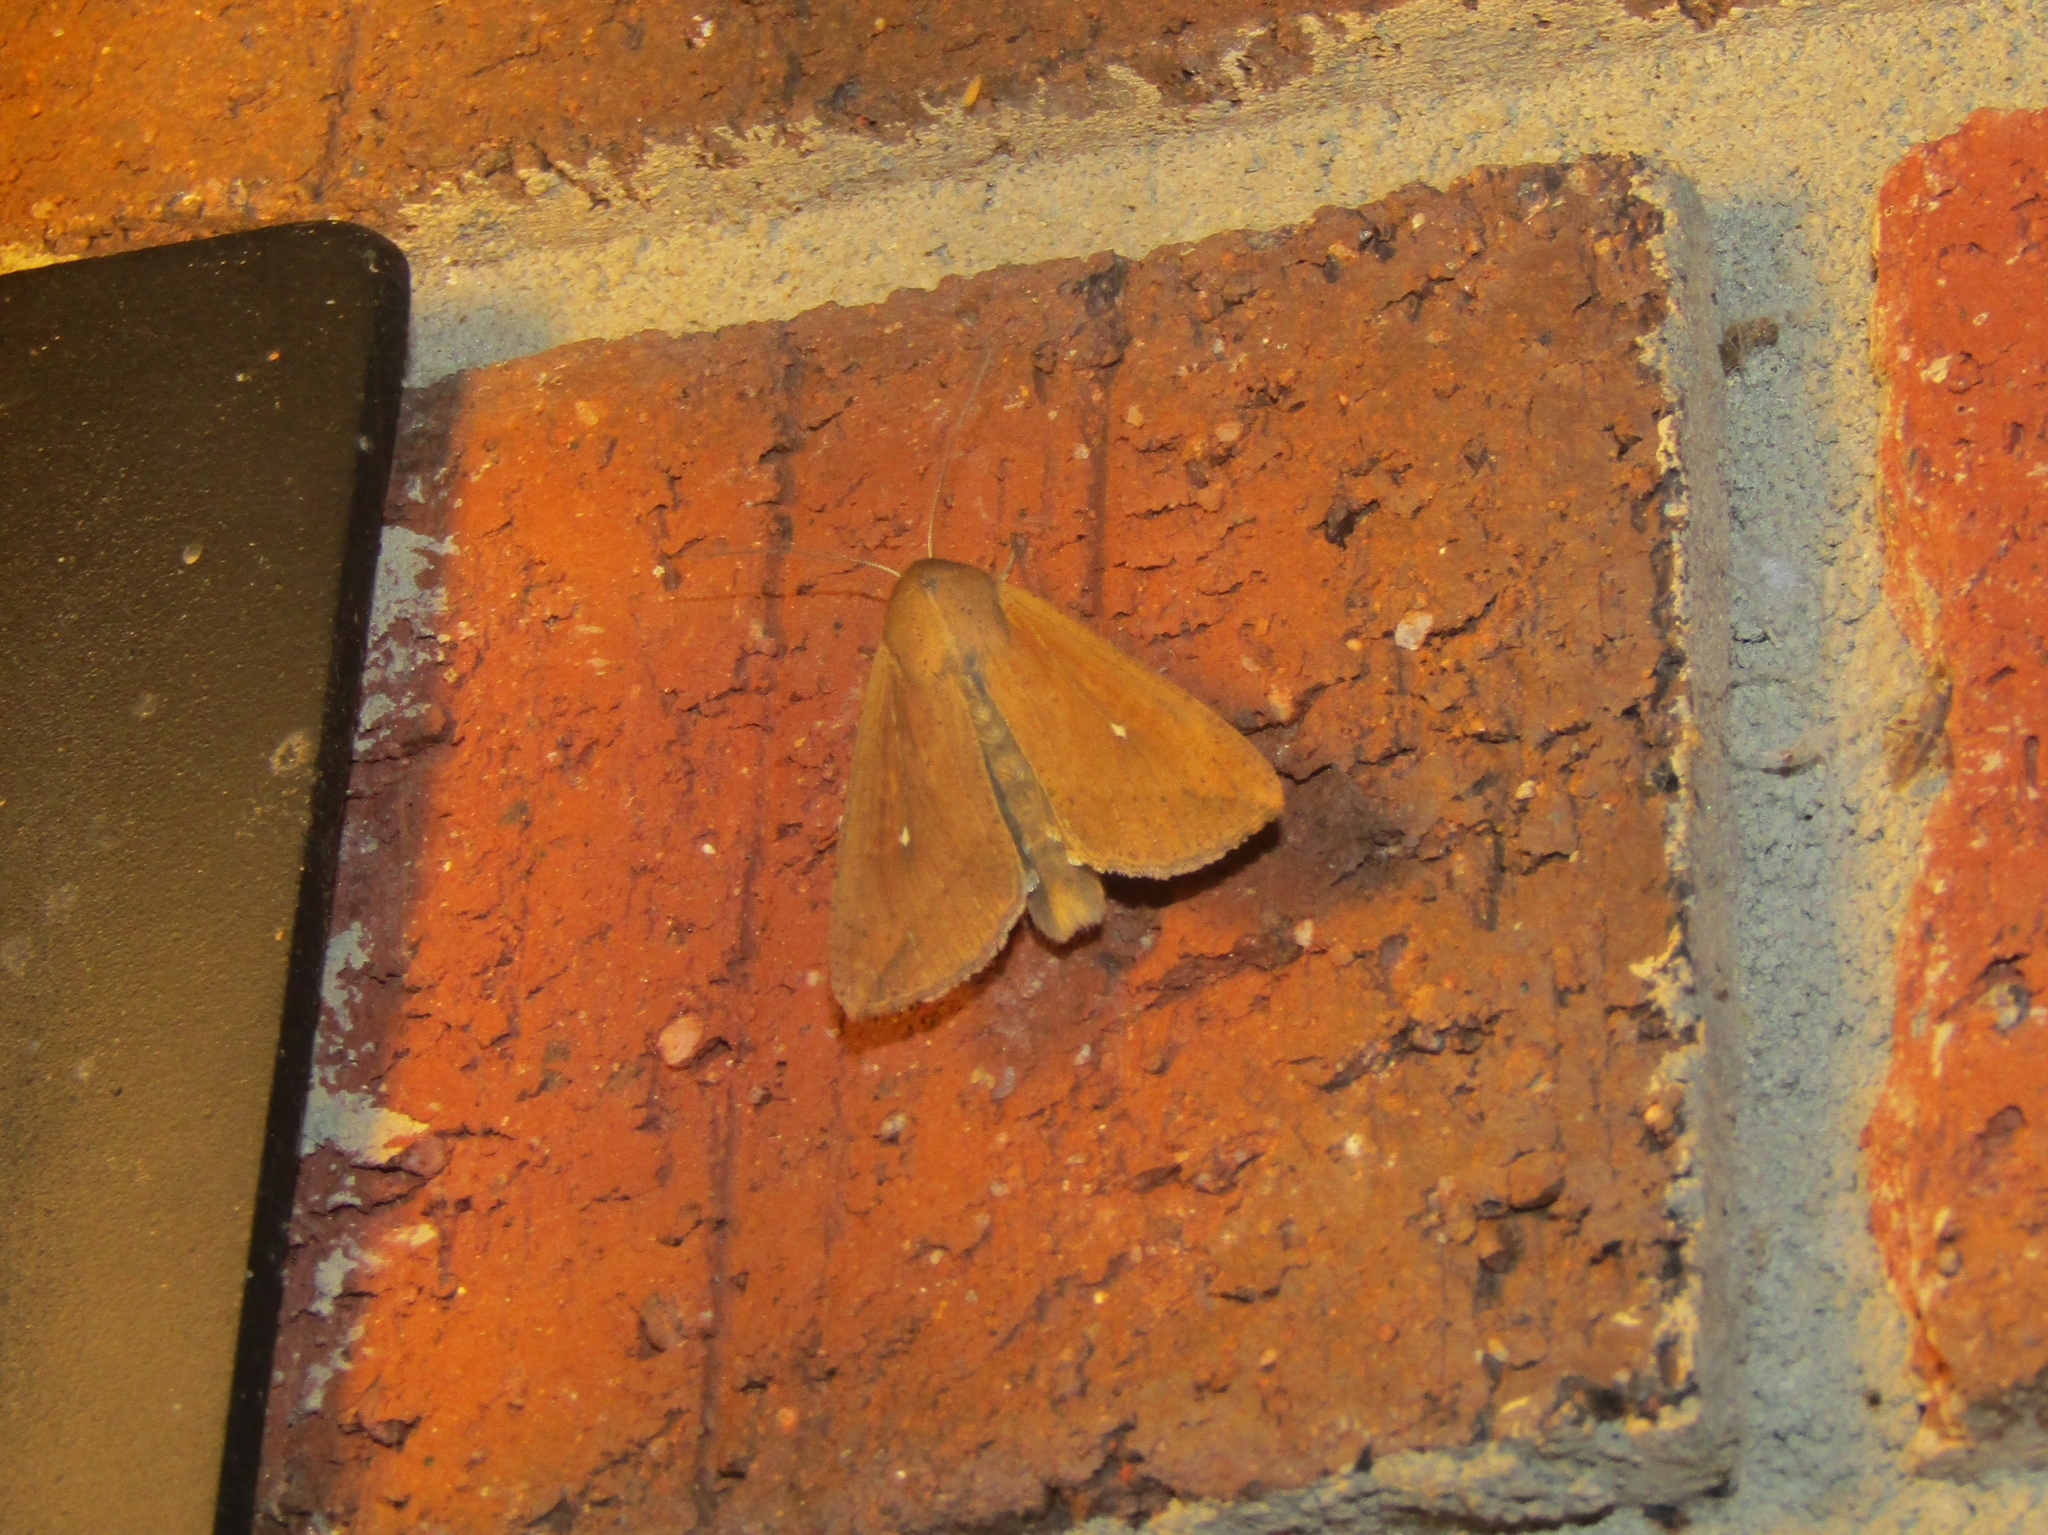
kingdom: Animalia
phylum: Arthropoda
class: Insecta
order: Lepidoptera
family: Noctuidae
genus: Mythimna
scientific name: Mythimna unipuncta
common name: White-speck
